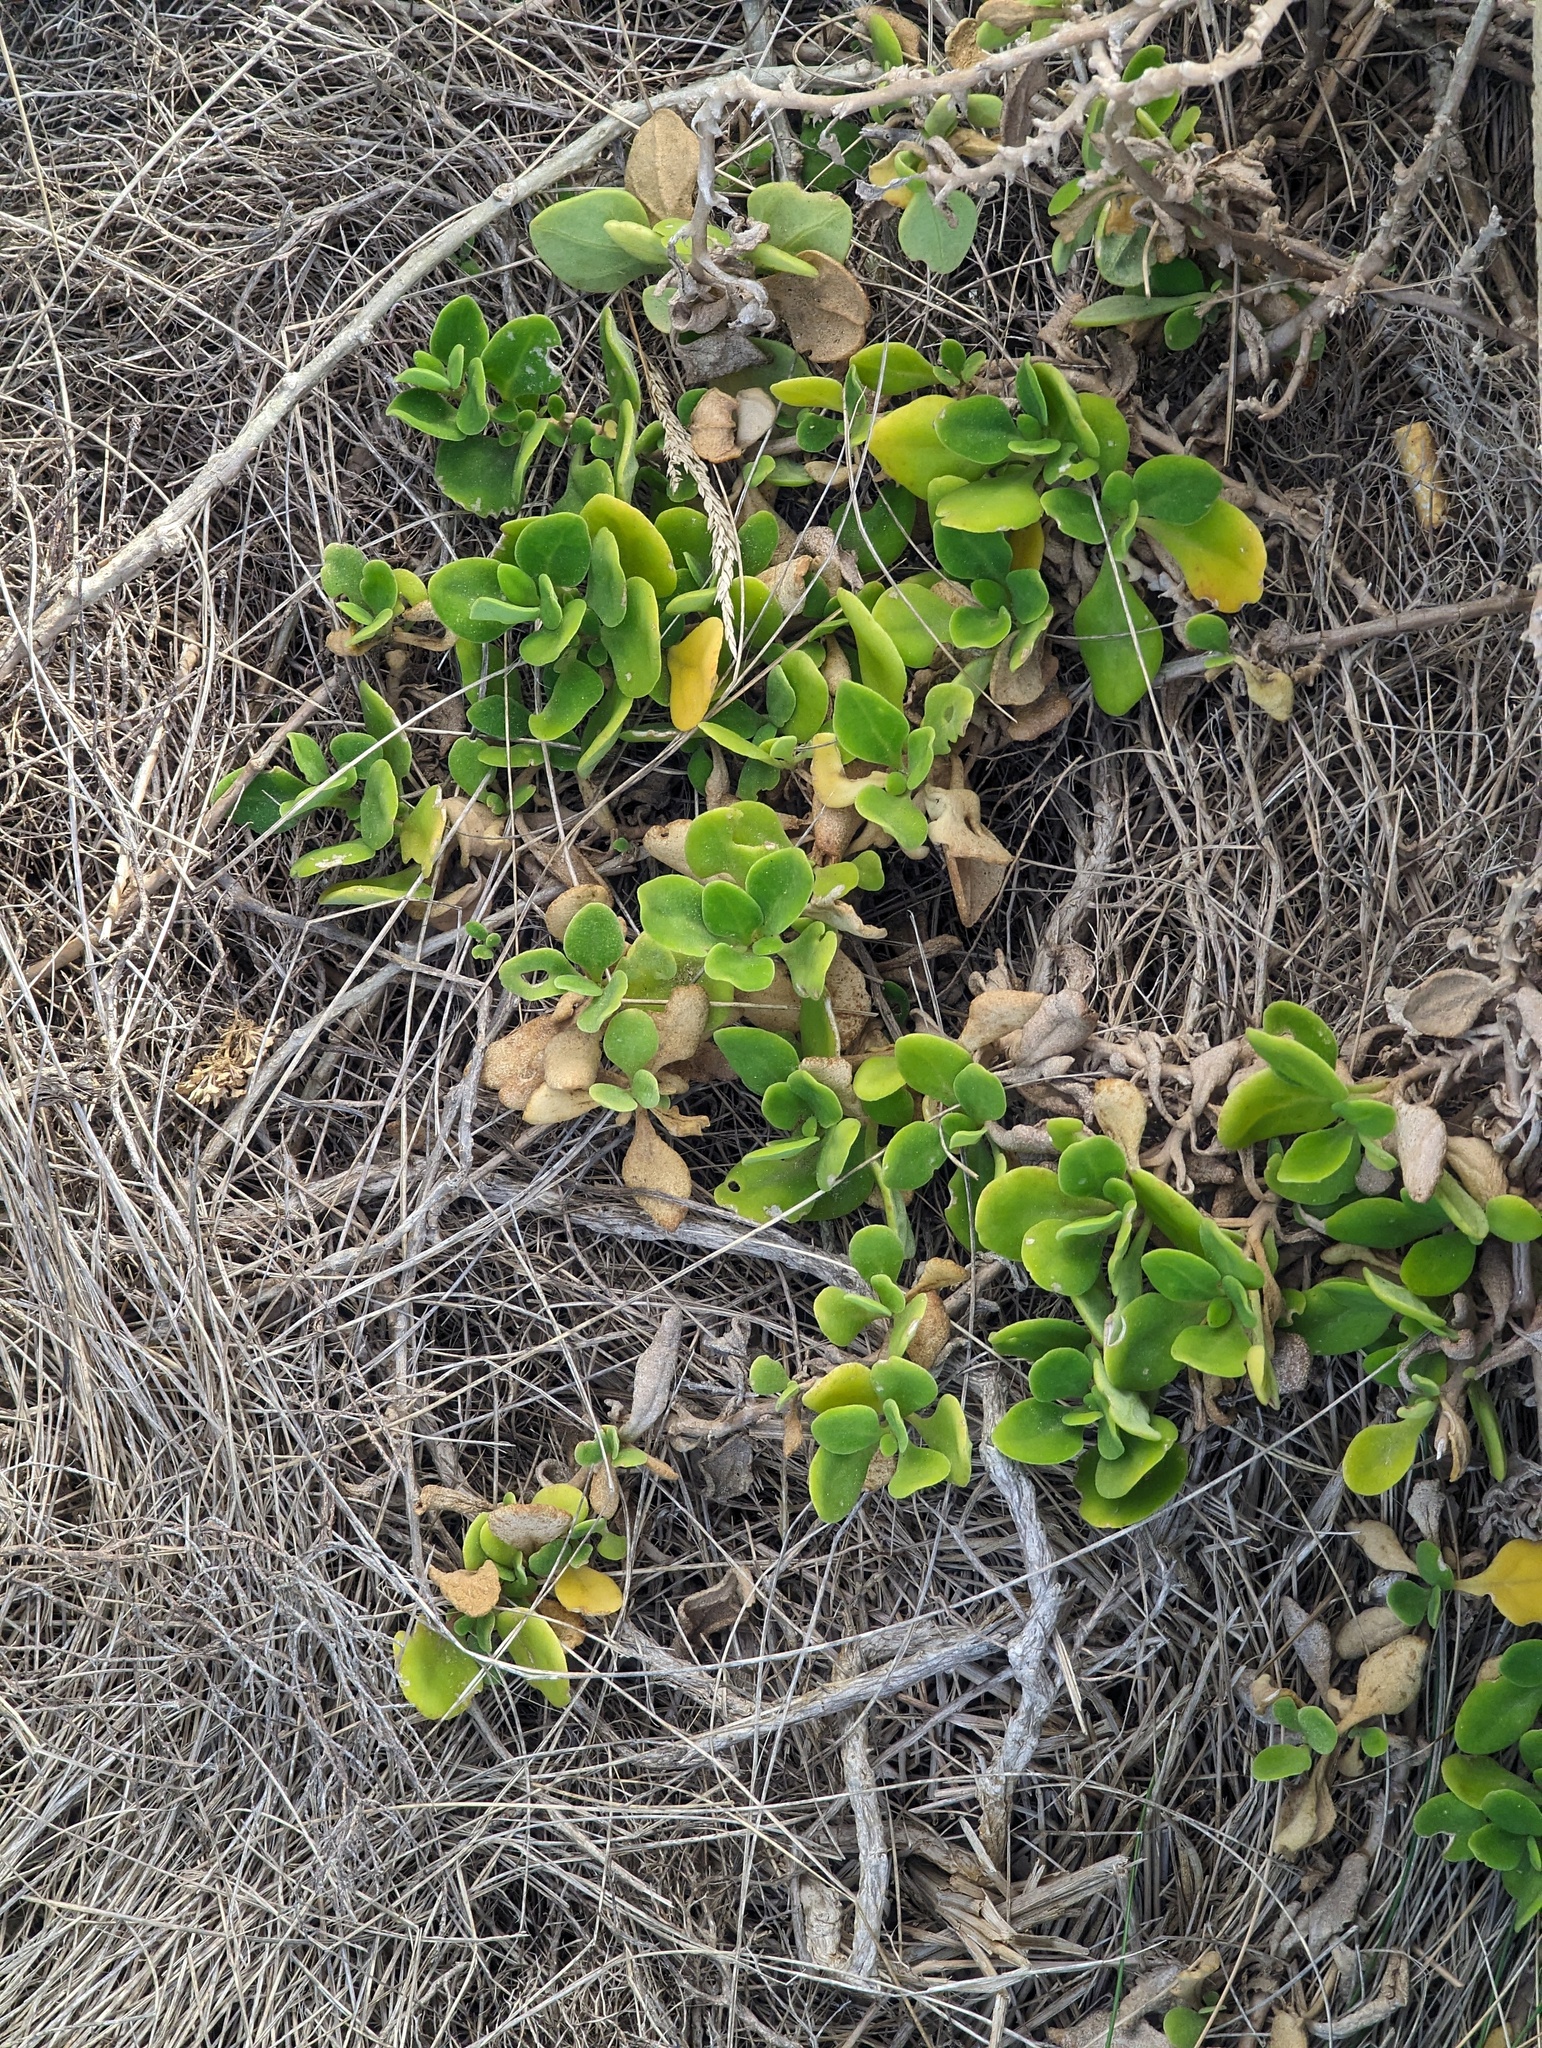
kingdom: Plantae
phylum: Tracheophyta
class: Magnoliopsida
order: Caryophyllales
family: Aizoaceae
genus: Tetragonia
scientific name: Tetragonia implexicoma
